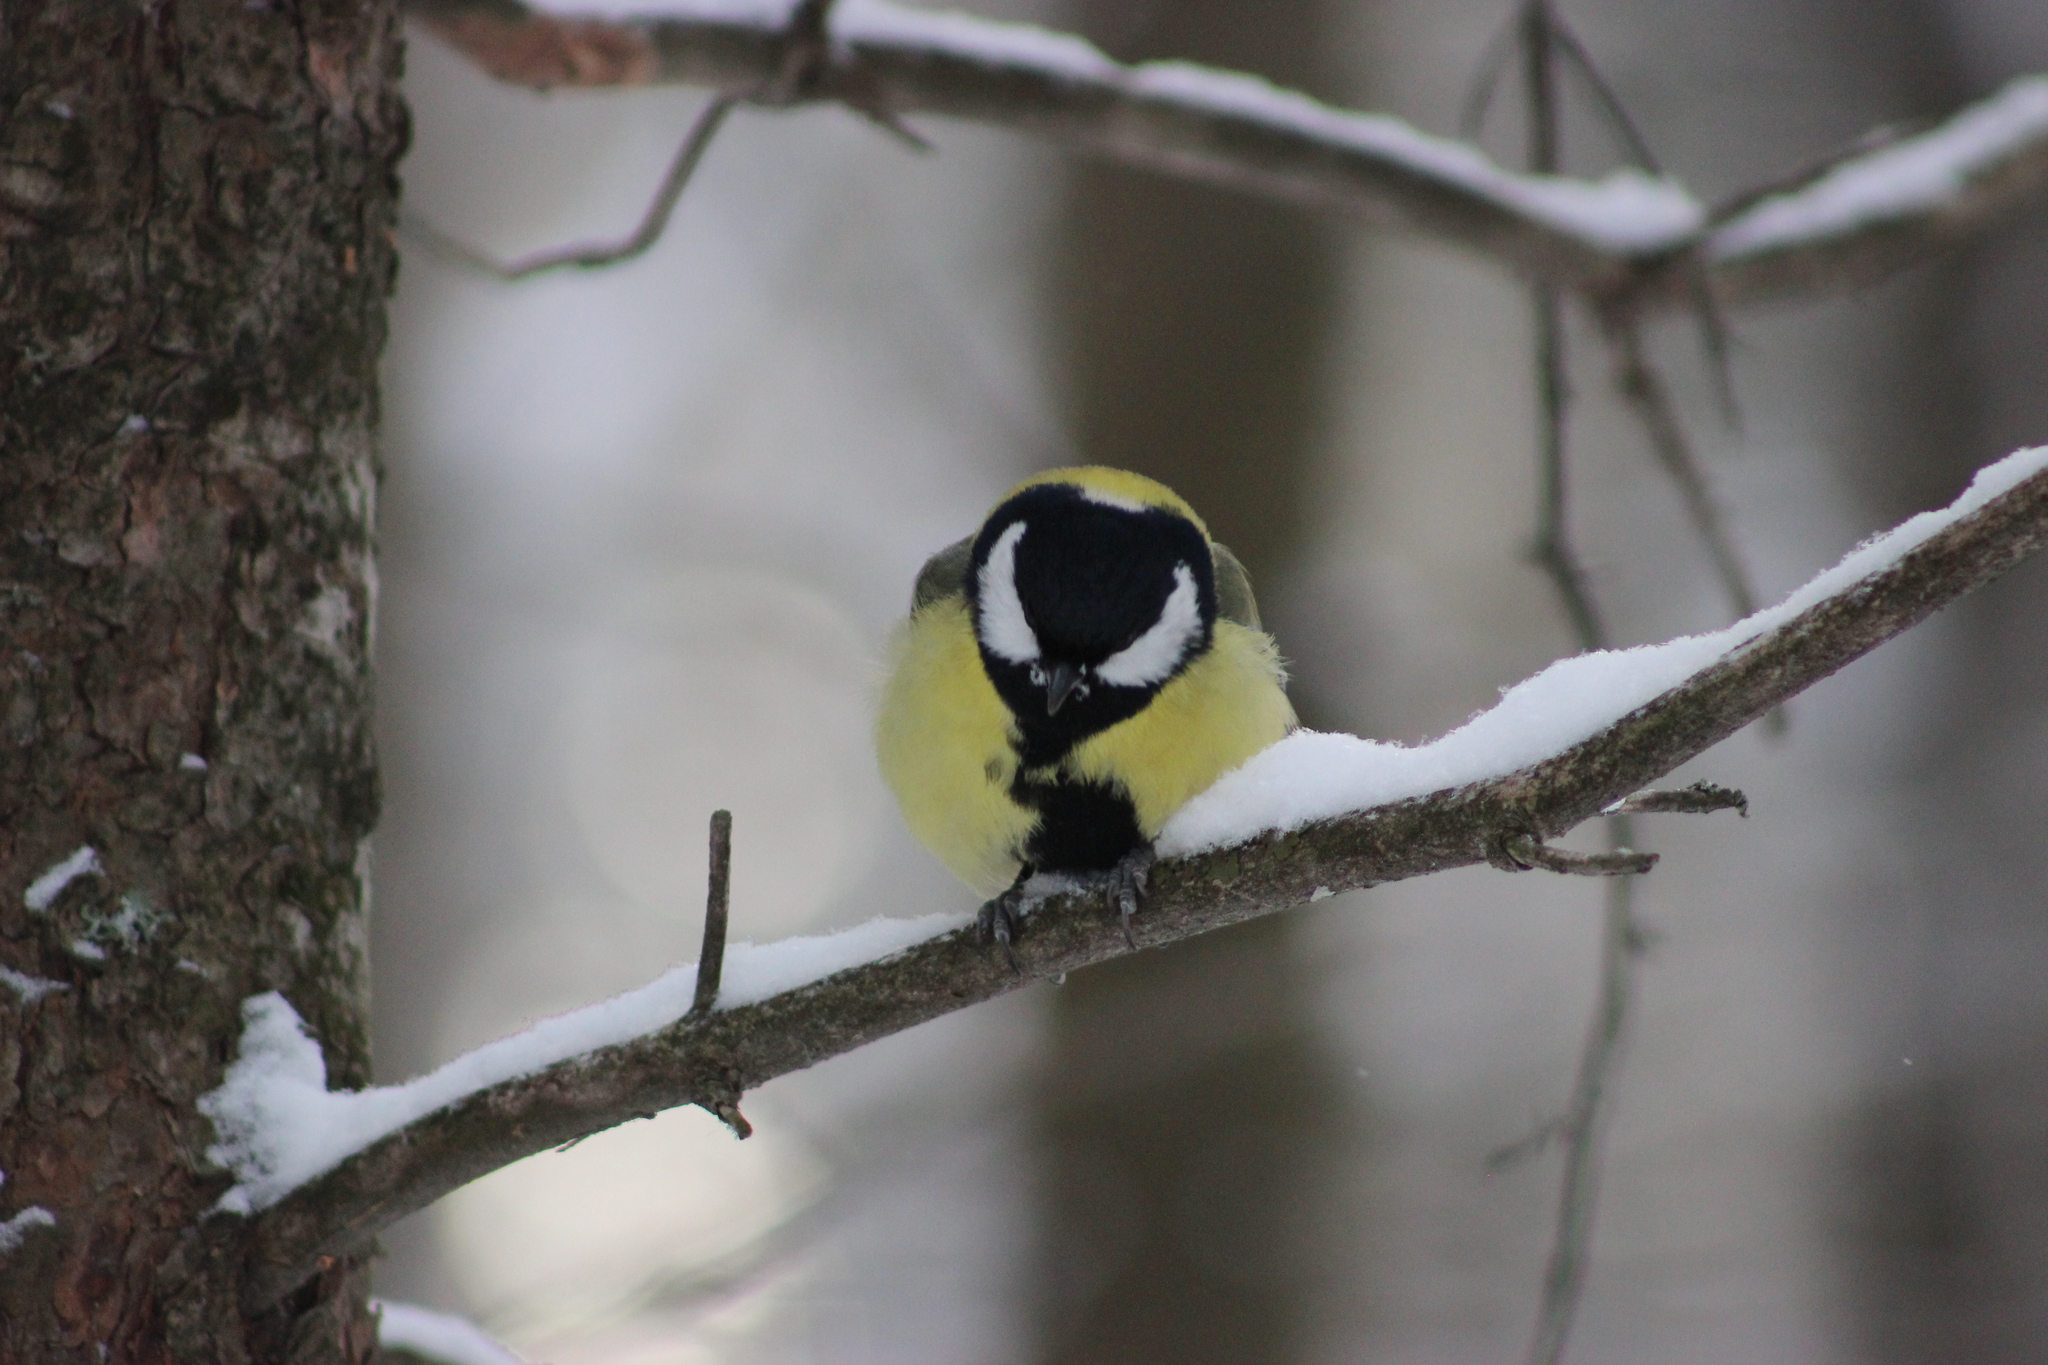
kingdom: Animalia
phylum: Chordata
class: Aves
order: Passeriformes
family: Paridae
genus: Parus
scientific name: Parus major
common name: Great tit
